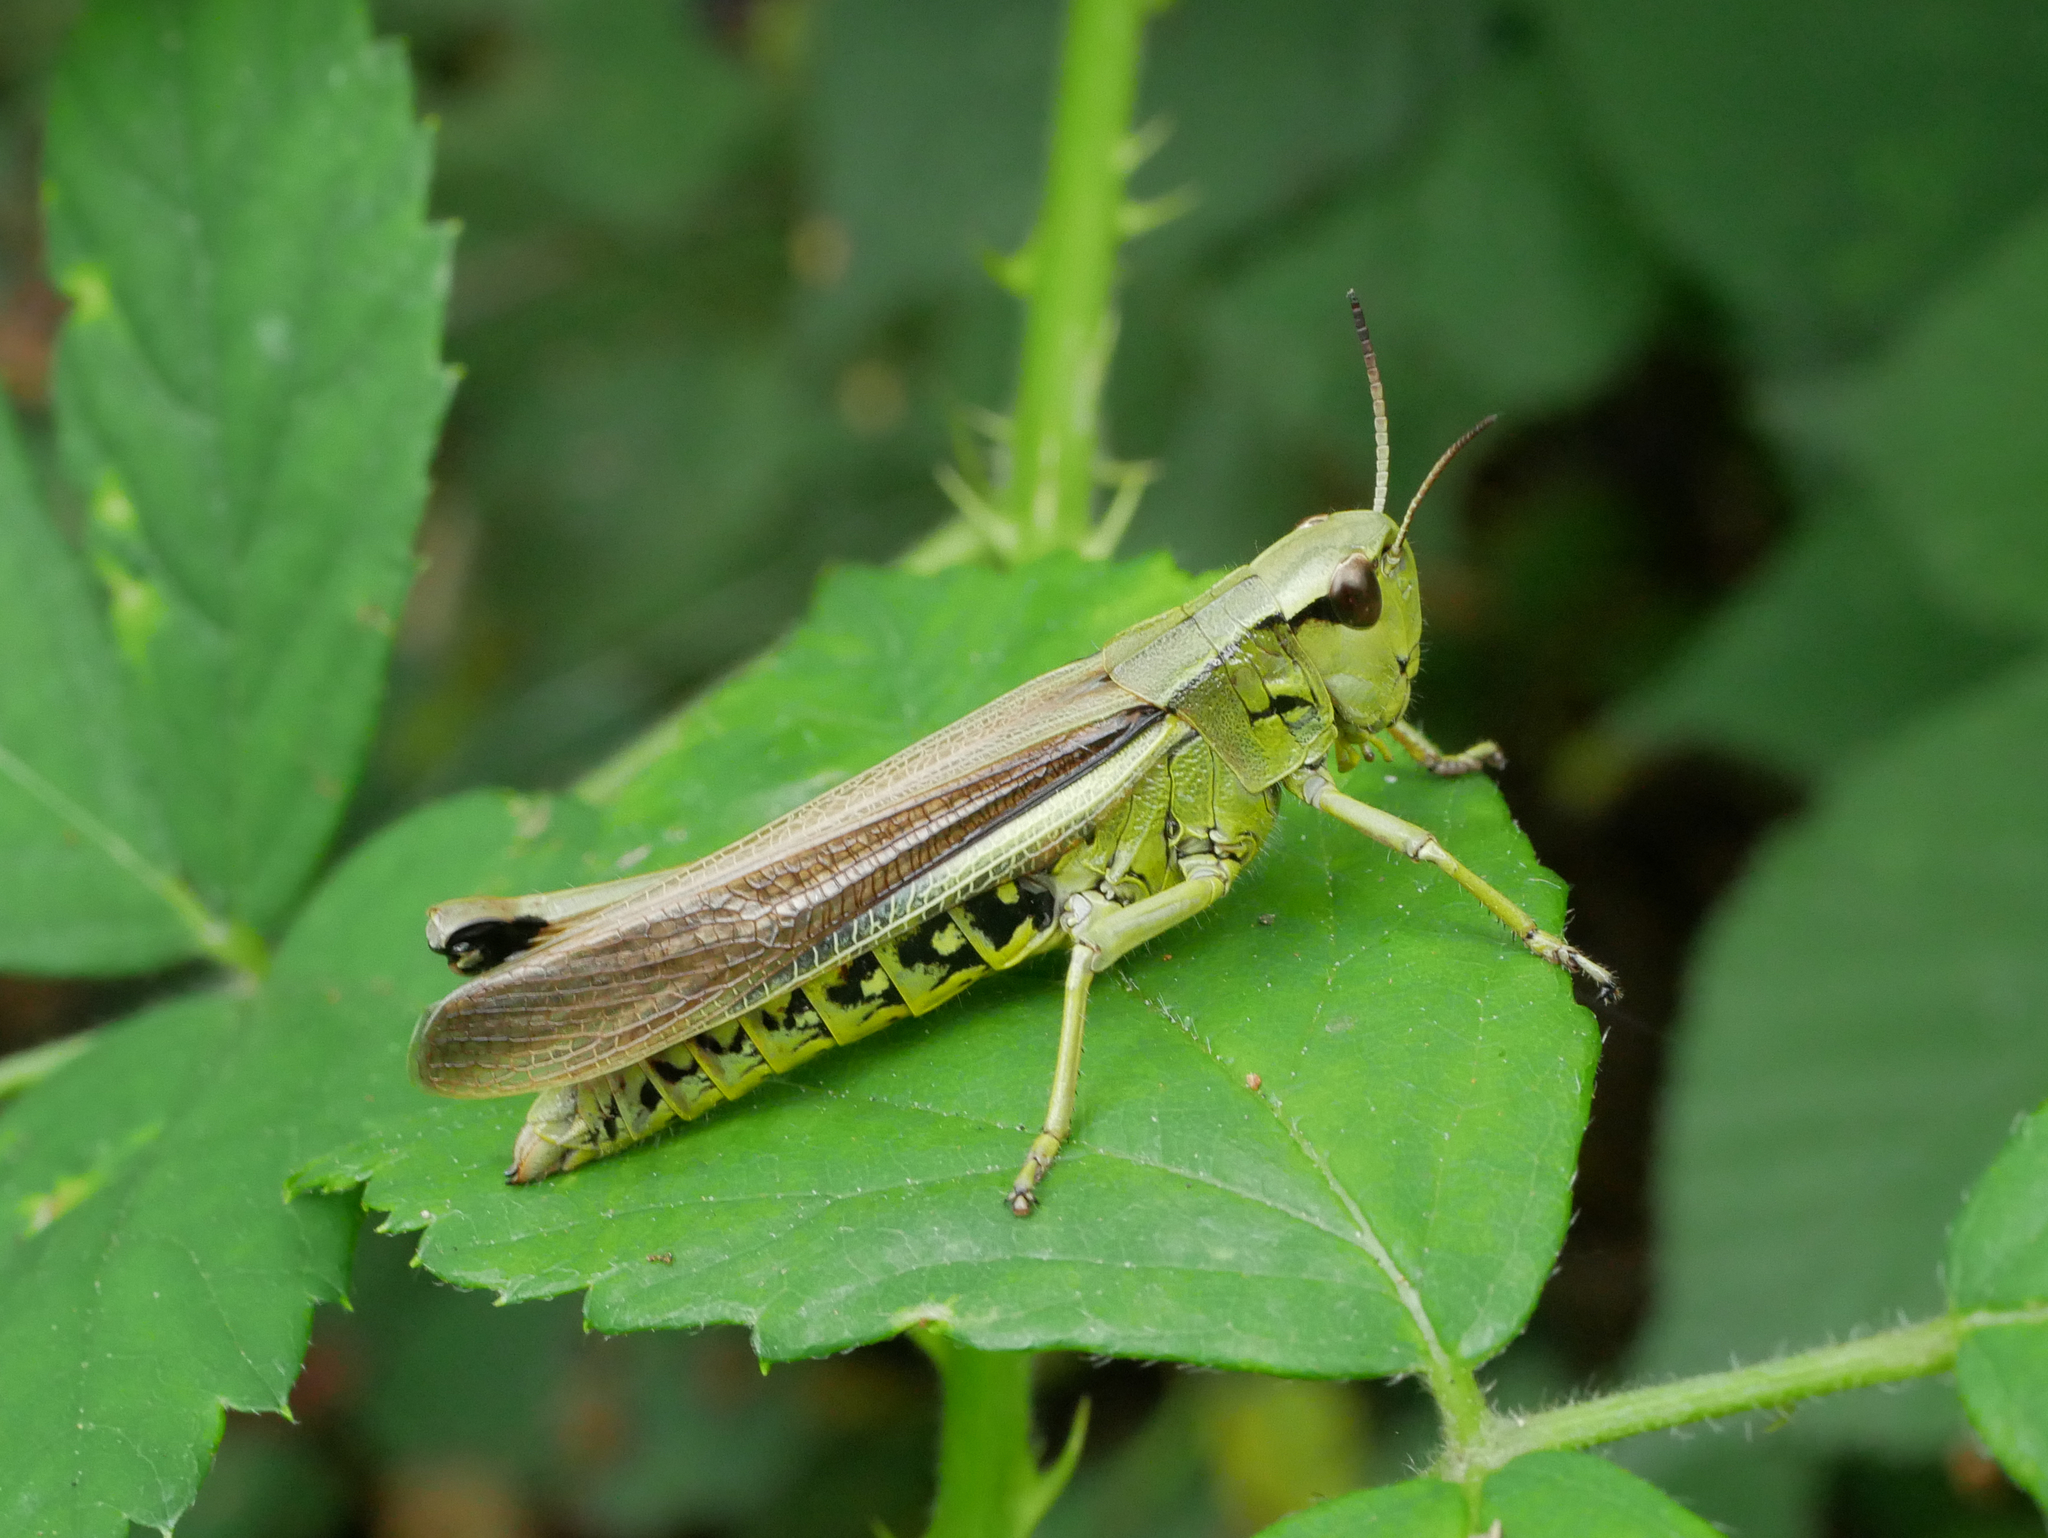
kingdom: Animalia
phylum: Arthropoda
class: Insecta
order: Orthoptera
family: Acrididae
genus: Stethophyma
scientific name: Stethophyma grossum
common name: Large marsh grasshopper
